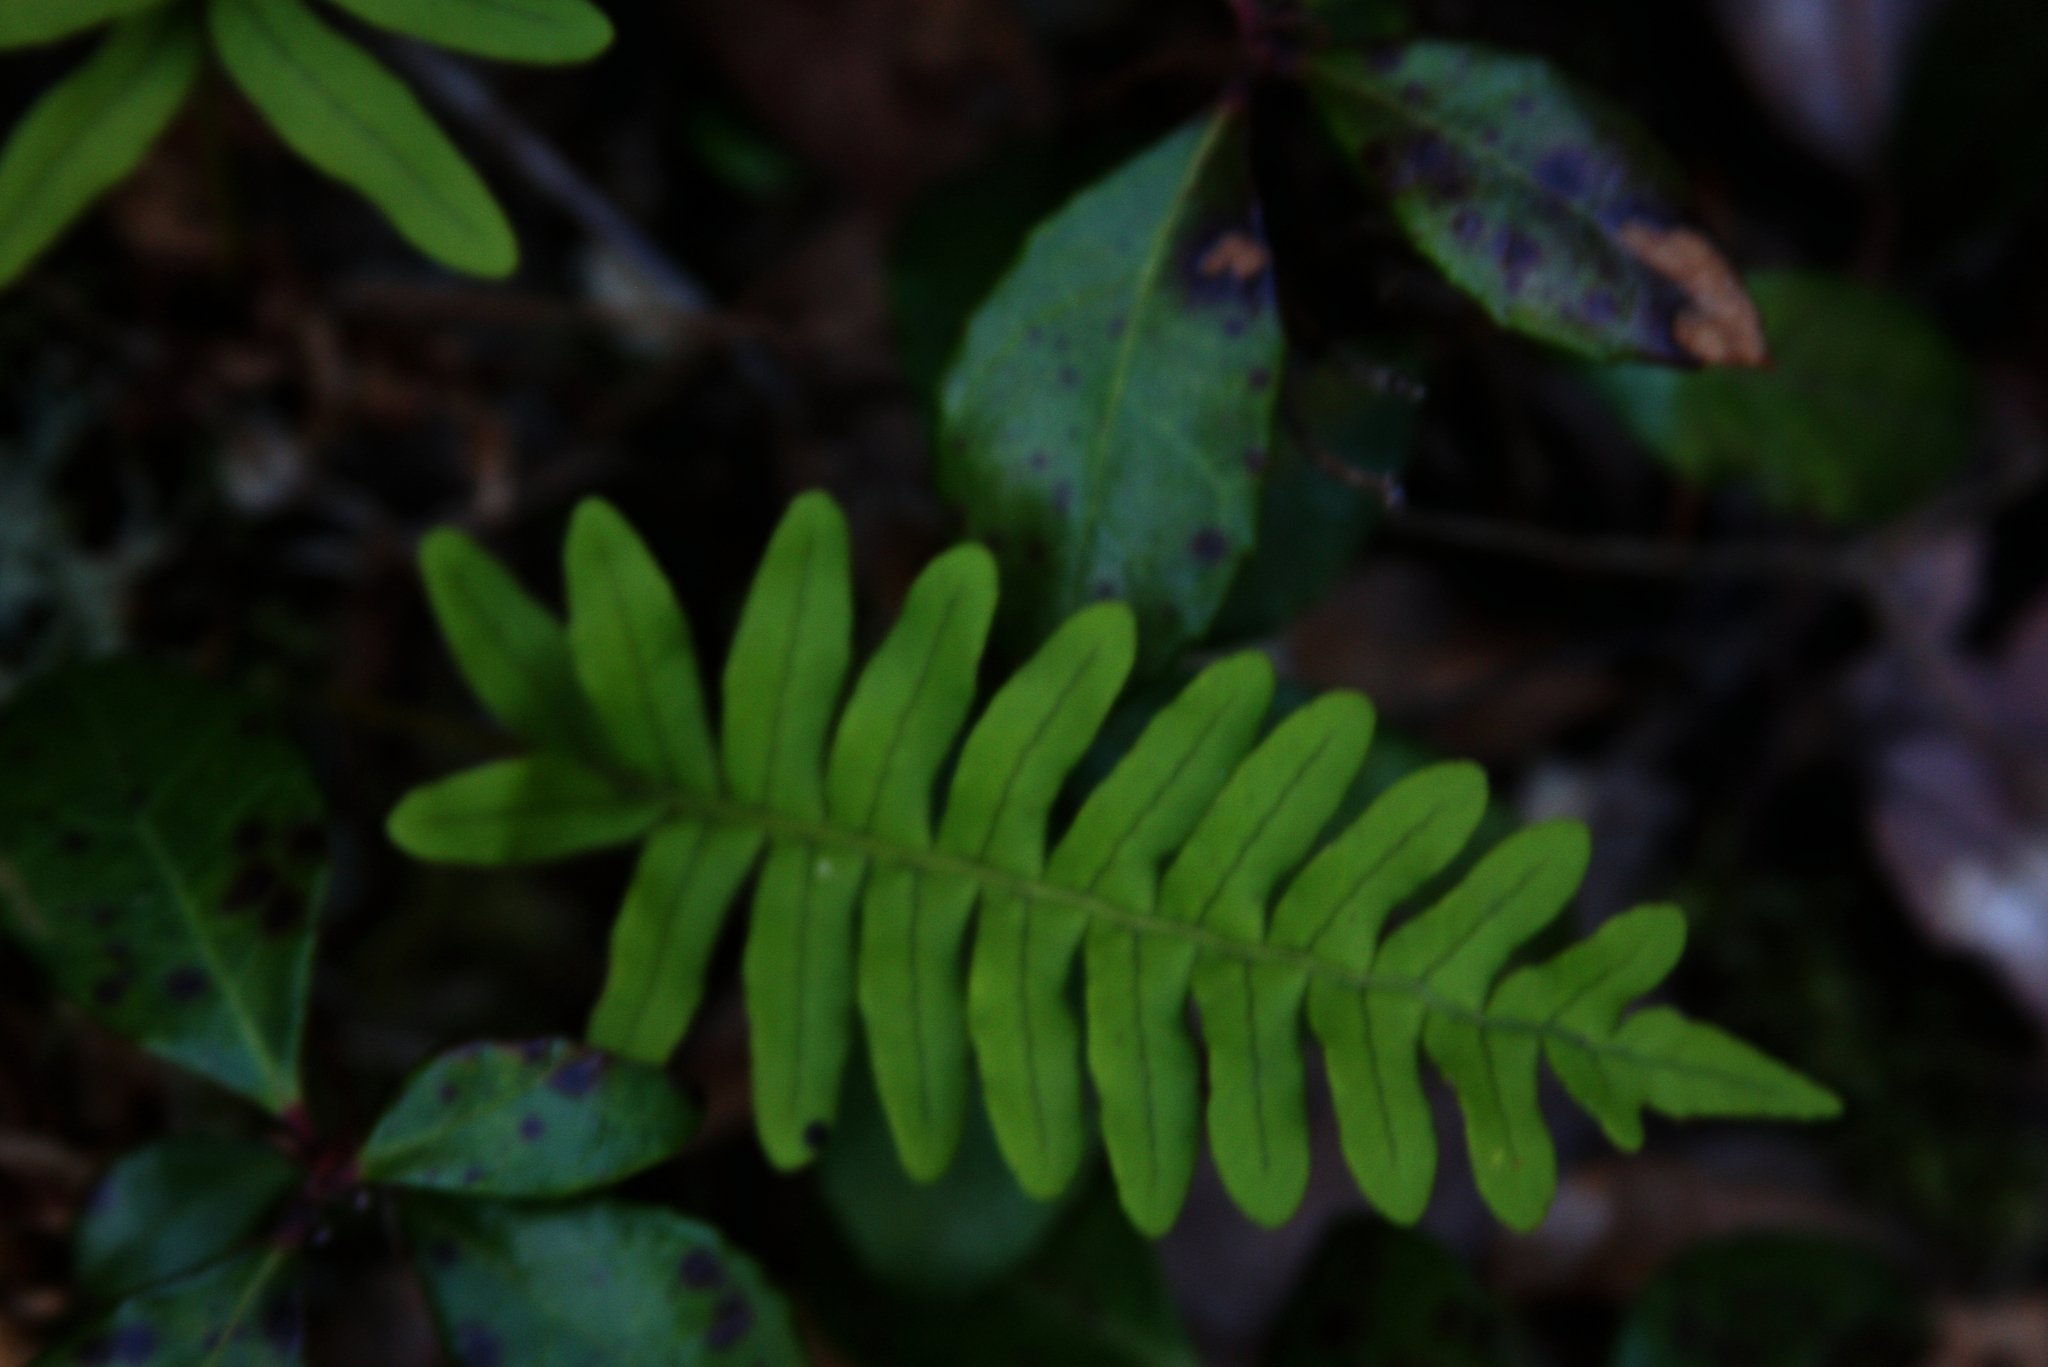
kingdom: Plantae
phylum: Tracheophyta
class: Magnoliopsida
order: Ericales
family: Ericaceae
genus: Gaultheria
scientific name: Gaultheria procumbens
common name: Checkerberry
